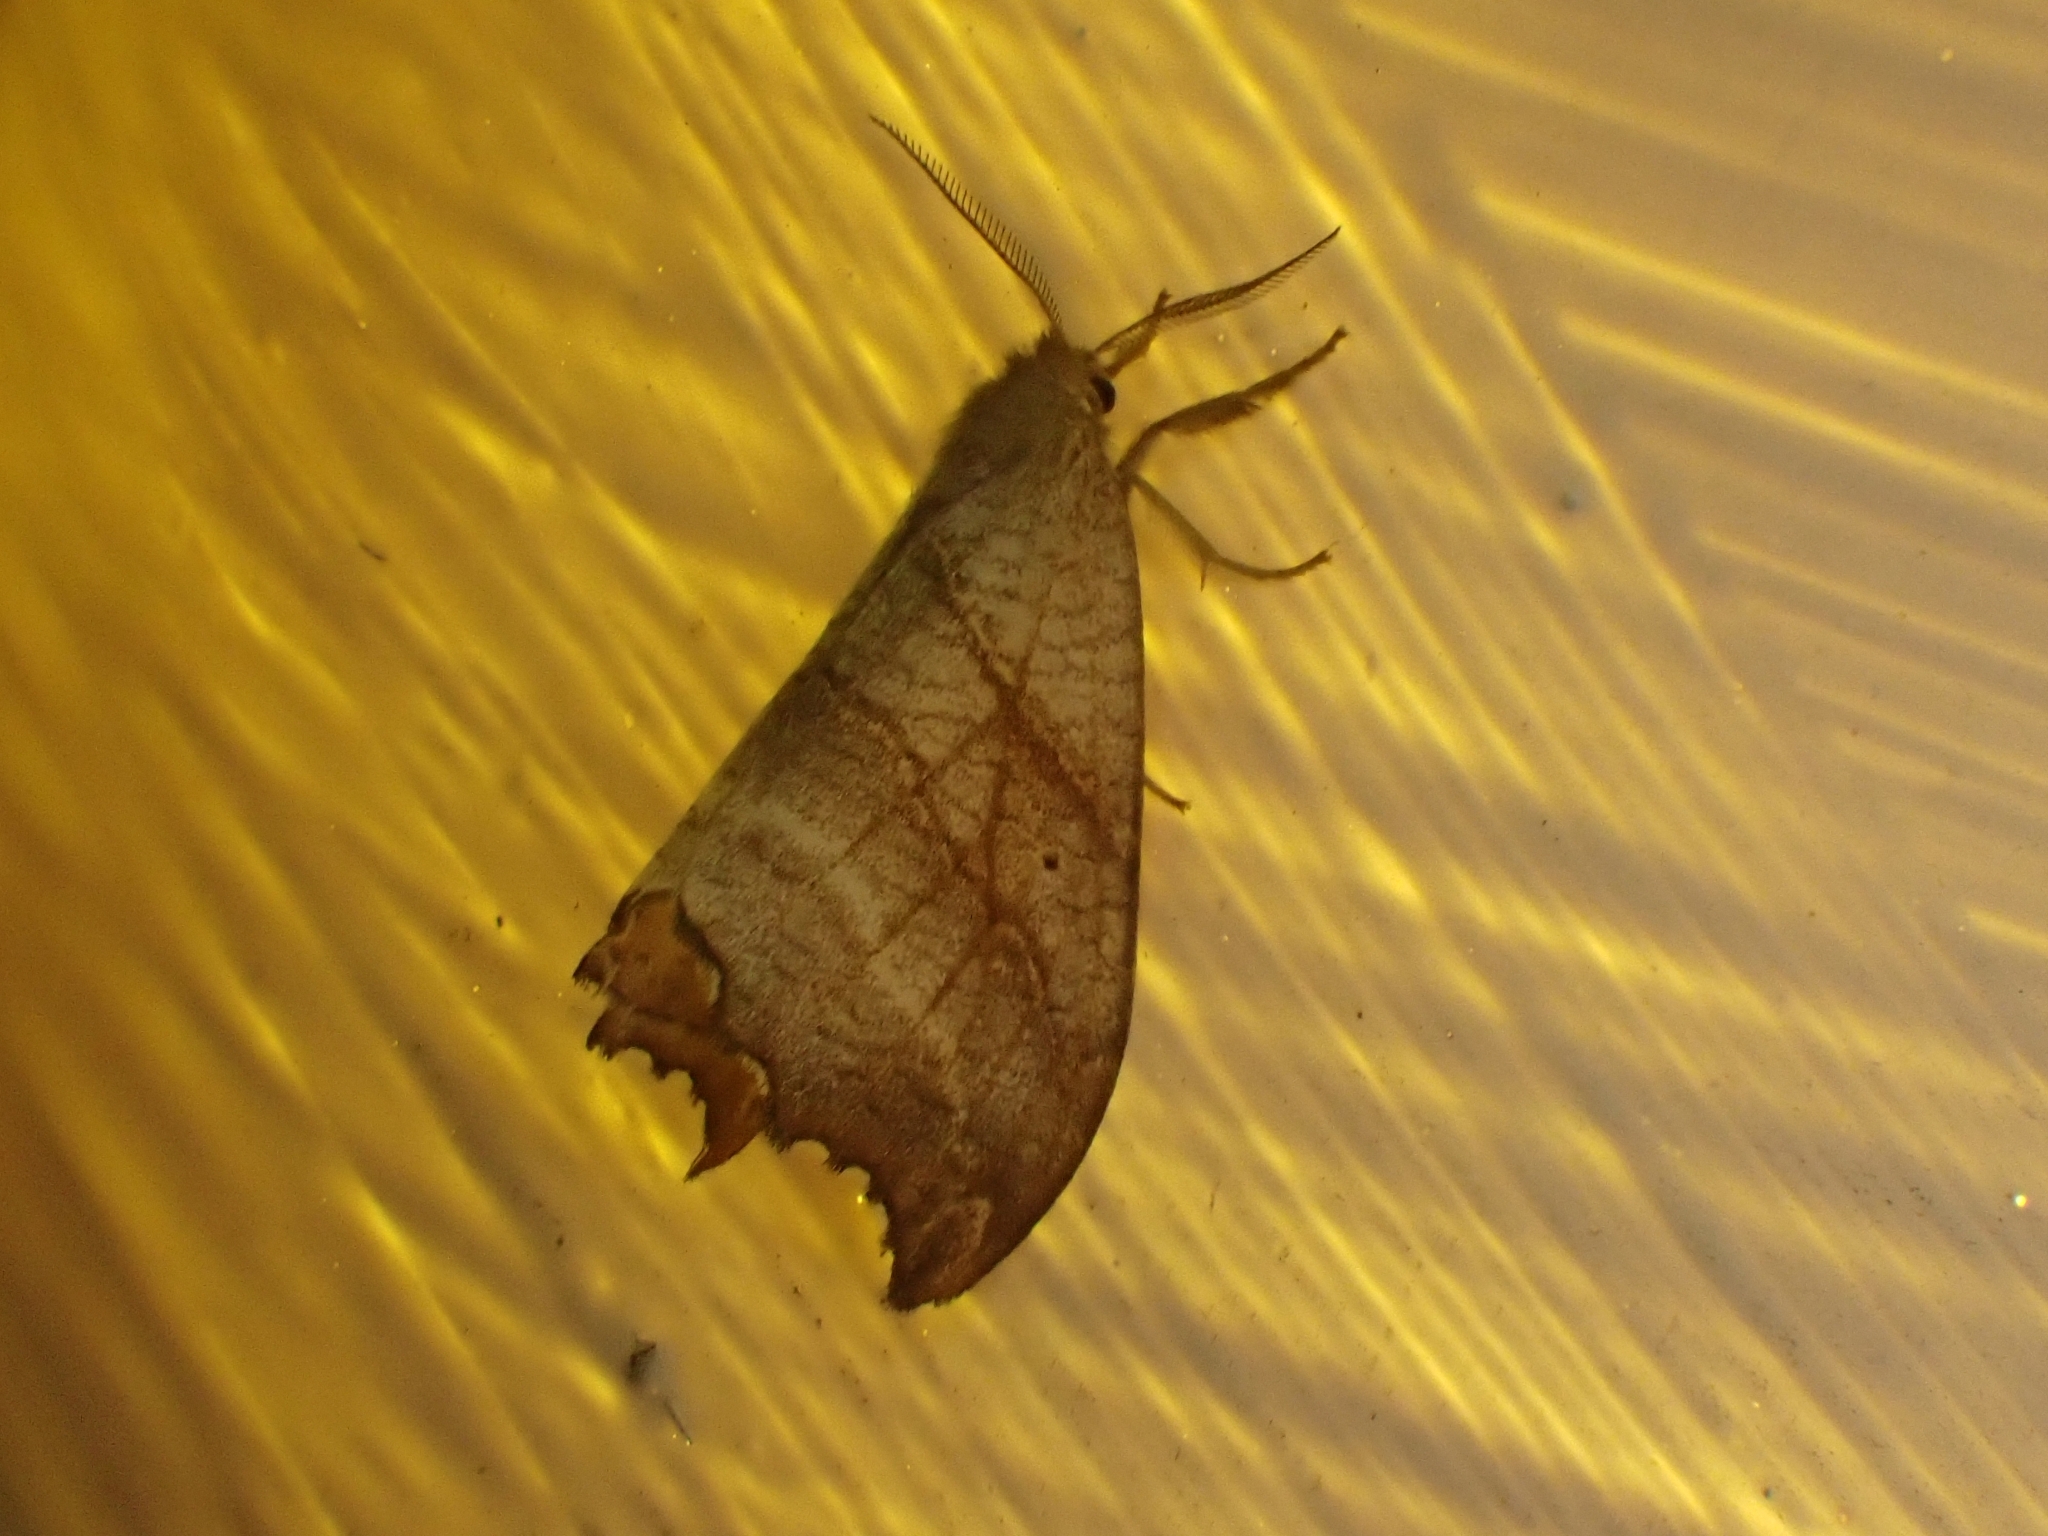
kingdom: Animalia
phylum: Arthropoda
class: Insecta
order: Lepidoptera
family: Drepanidae
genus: Falcaria
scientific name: Falcaria lacertinaria
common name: Scalloped hook-tip
